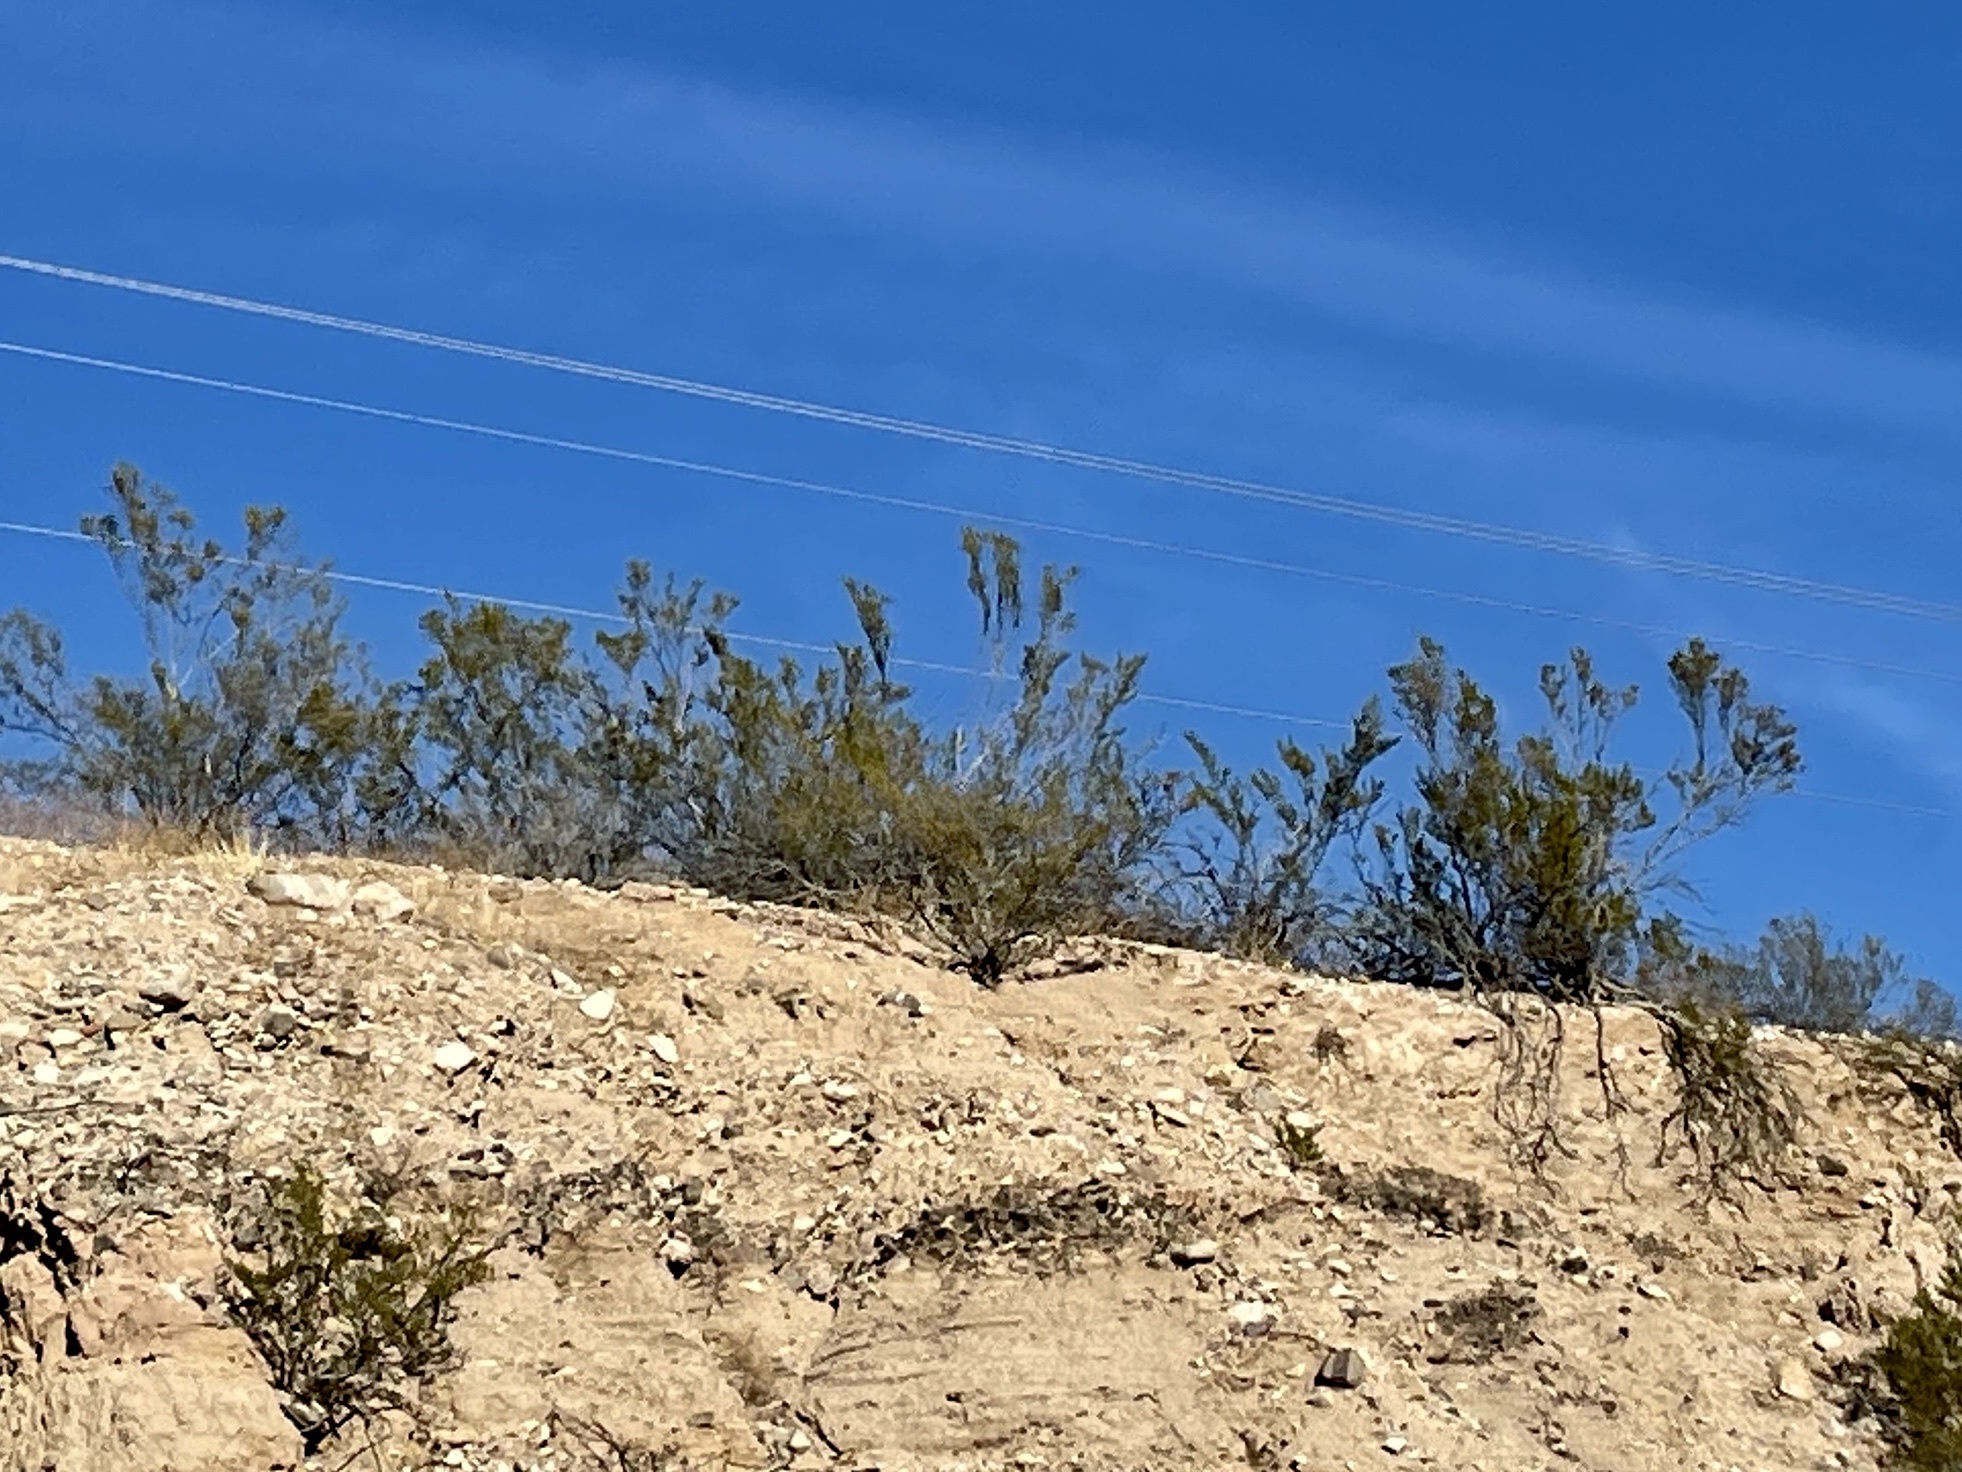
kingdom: Plantae
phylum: Tracheophyta
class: Magnoliopsida
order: Zygophyllales
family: Zygophyllaceae
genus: Larrea
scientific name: Larrea tridentata
